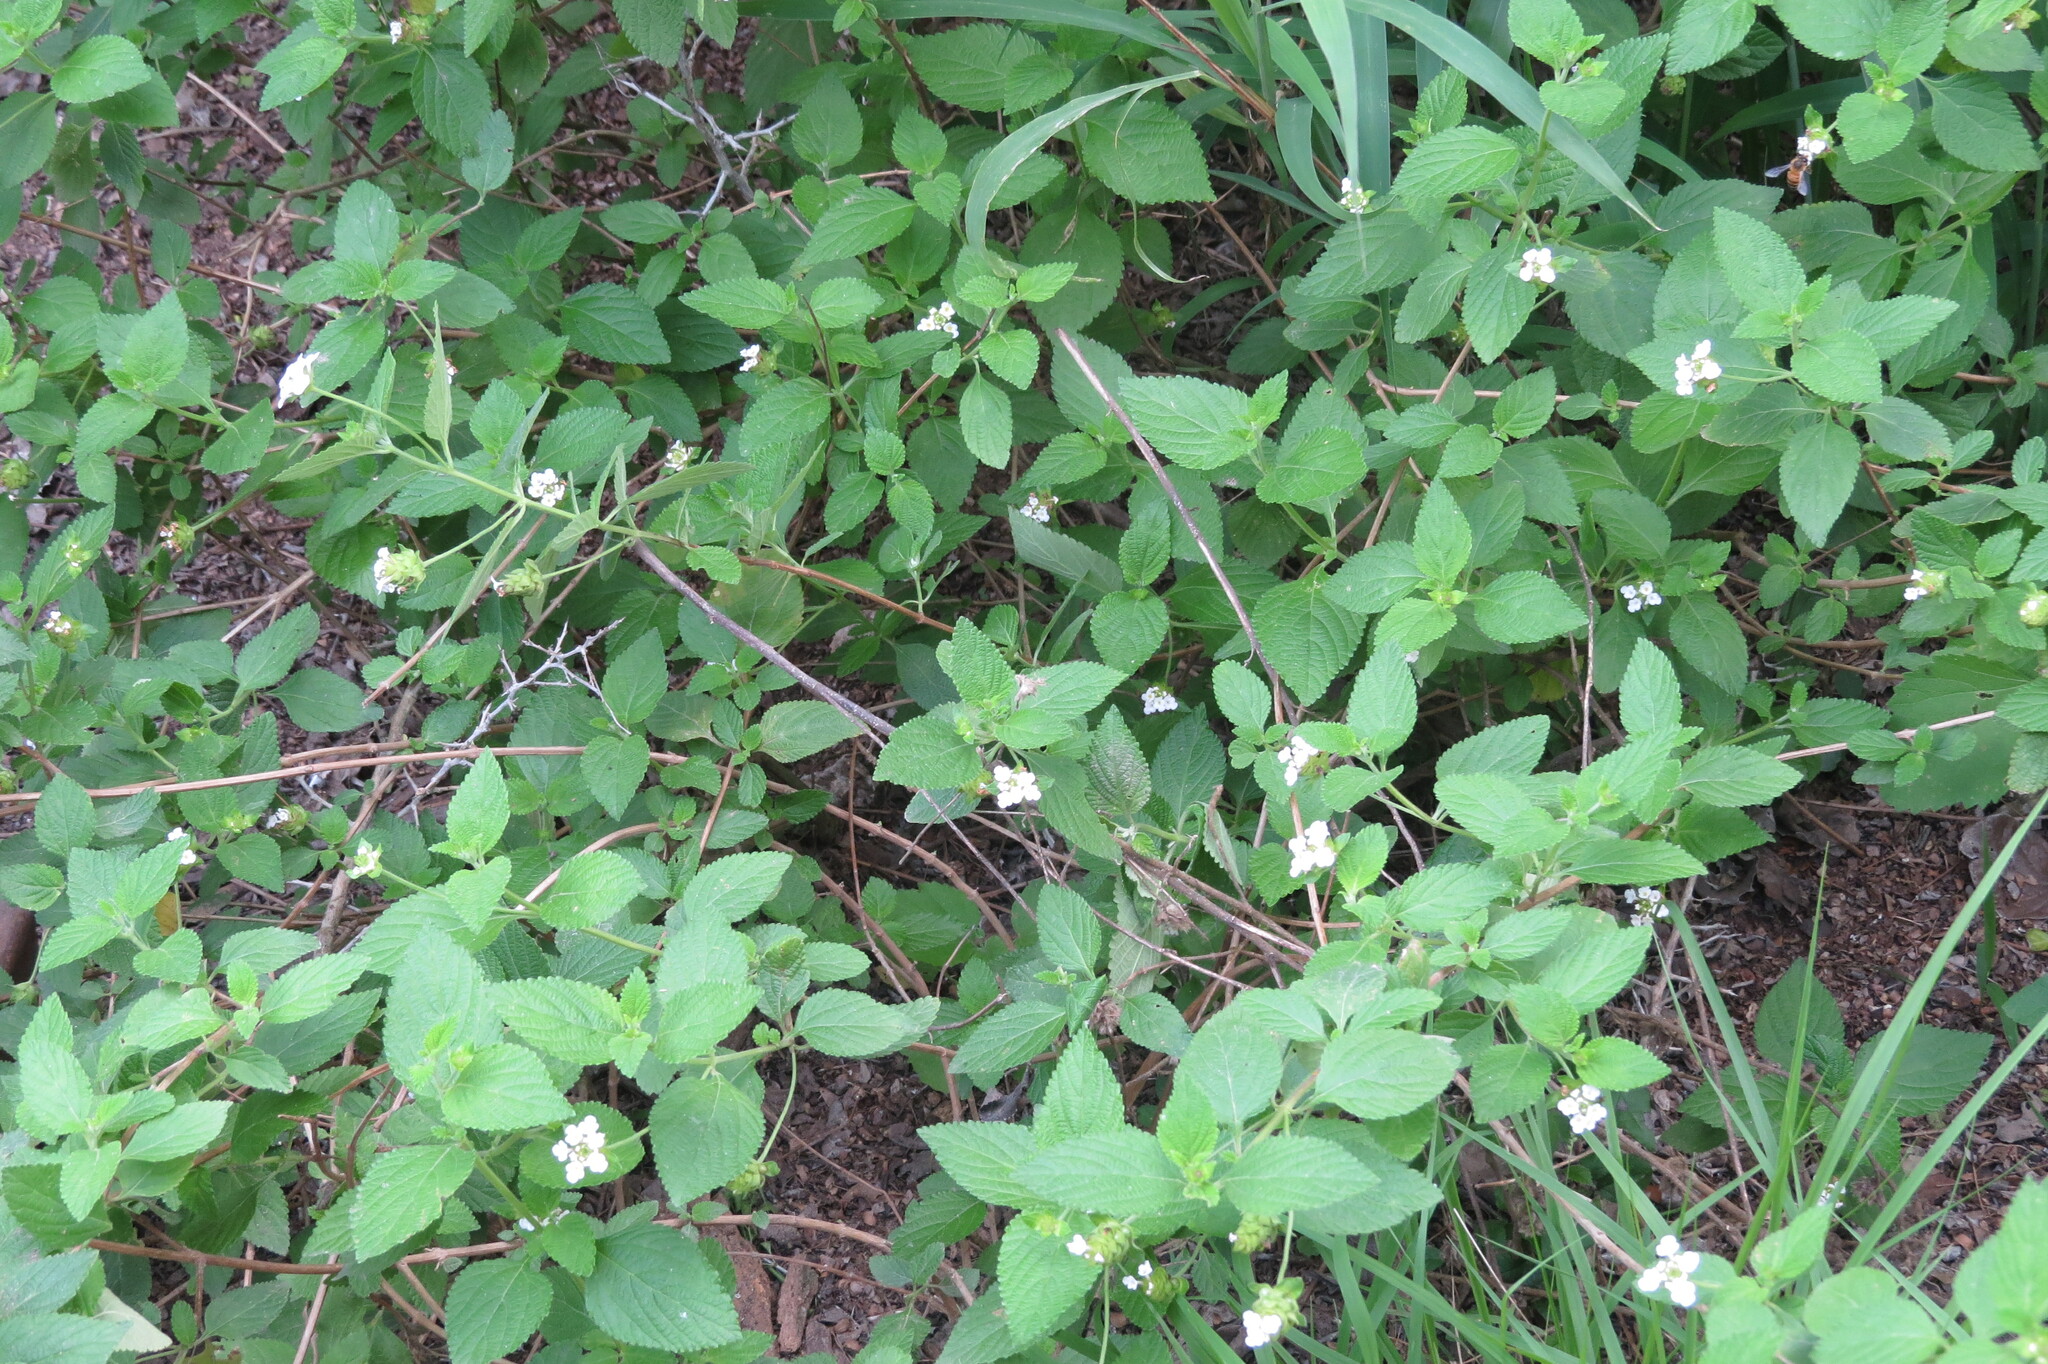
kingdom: Plantae
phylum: Tracheophyta
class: Magnoliopsida
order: Lamiales
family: Verbenaceae
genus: Lantana
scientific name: Lantana velutina
